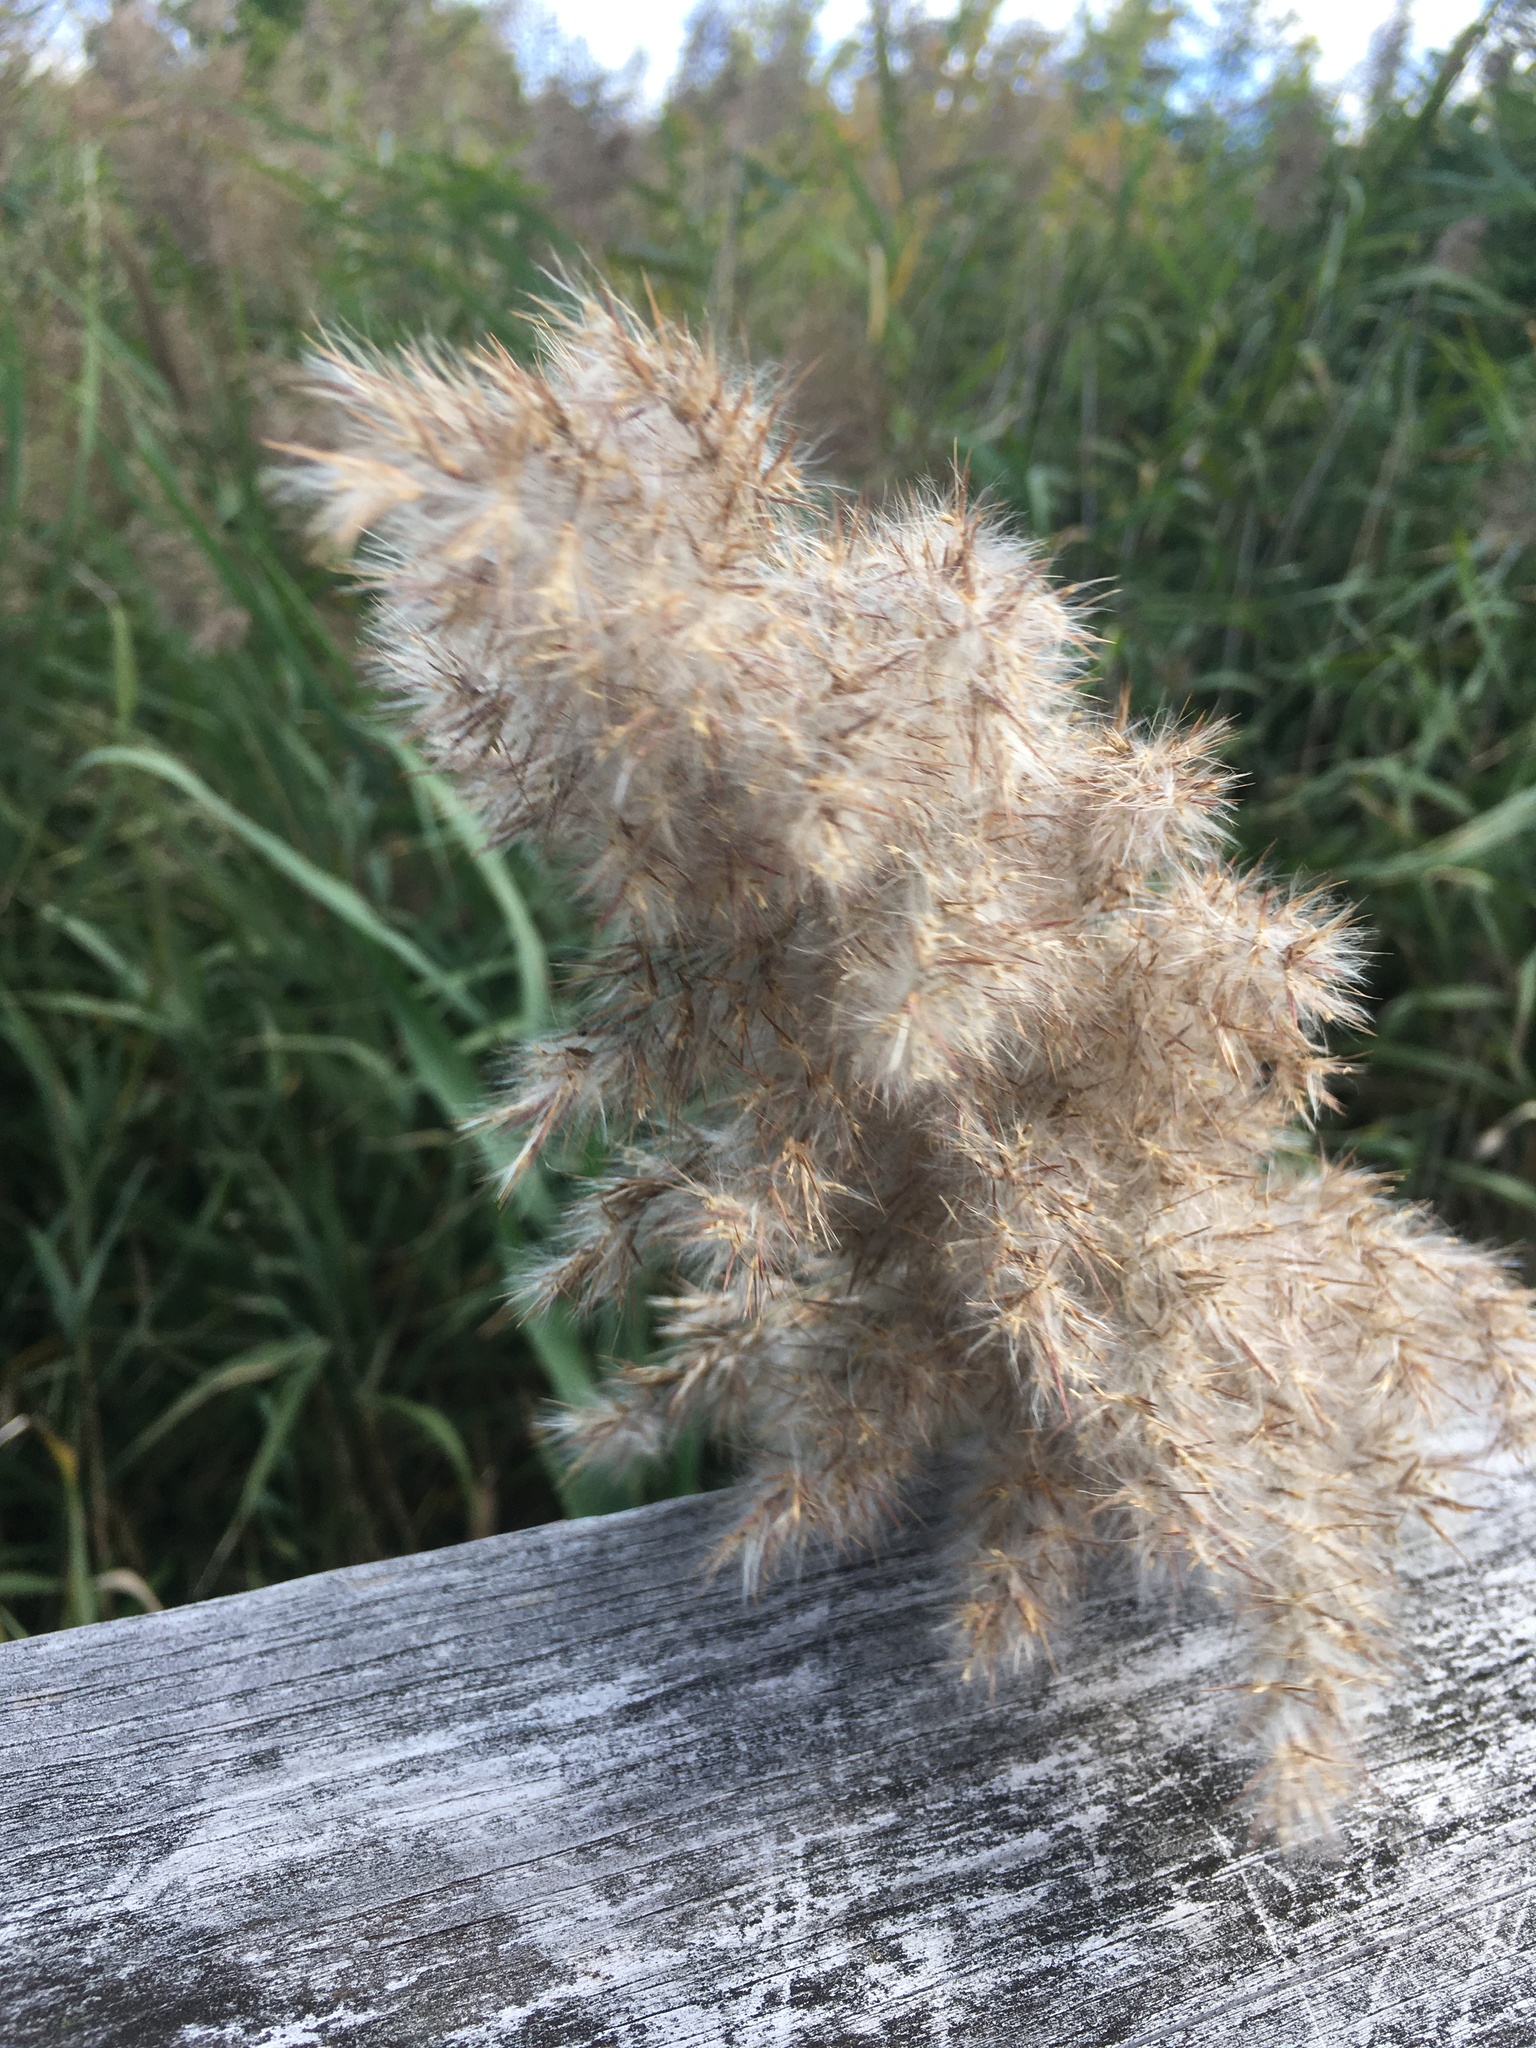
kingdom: Plantae
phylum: Tracheophyta
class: Liliopsida
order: Poales
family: Poaceae
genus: Phragmites
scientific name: Phragmites australis
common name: Common reed
